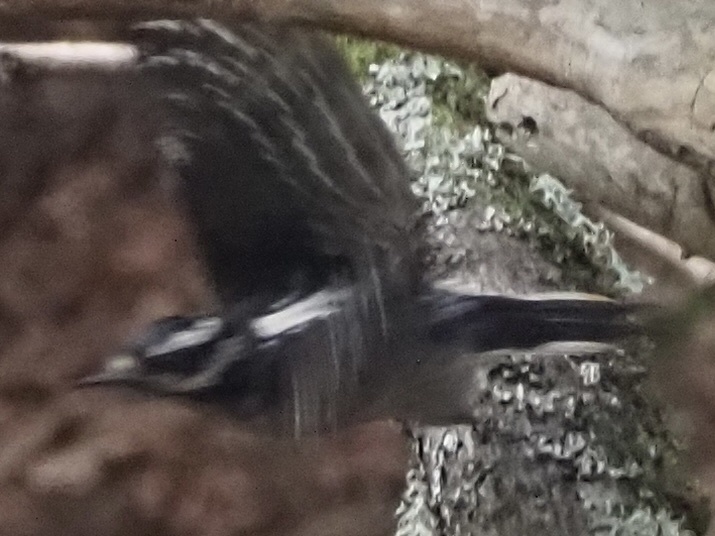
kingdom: Animalia
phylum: Chordata
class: Aves
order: Piciformes
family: Picidae
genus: Leuconotopicus
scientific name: Leuconotopicus villosus
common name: Hairy woodpecker
